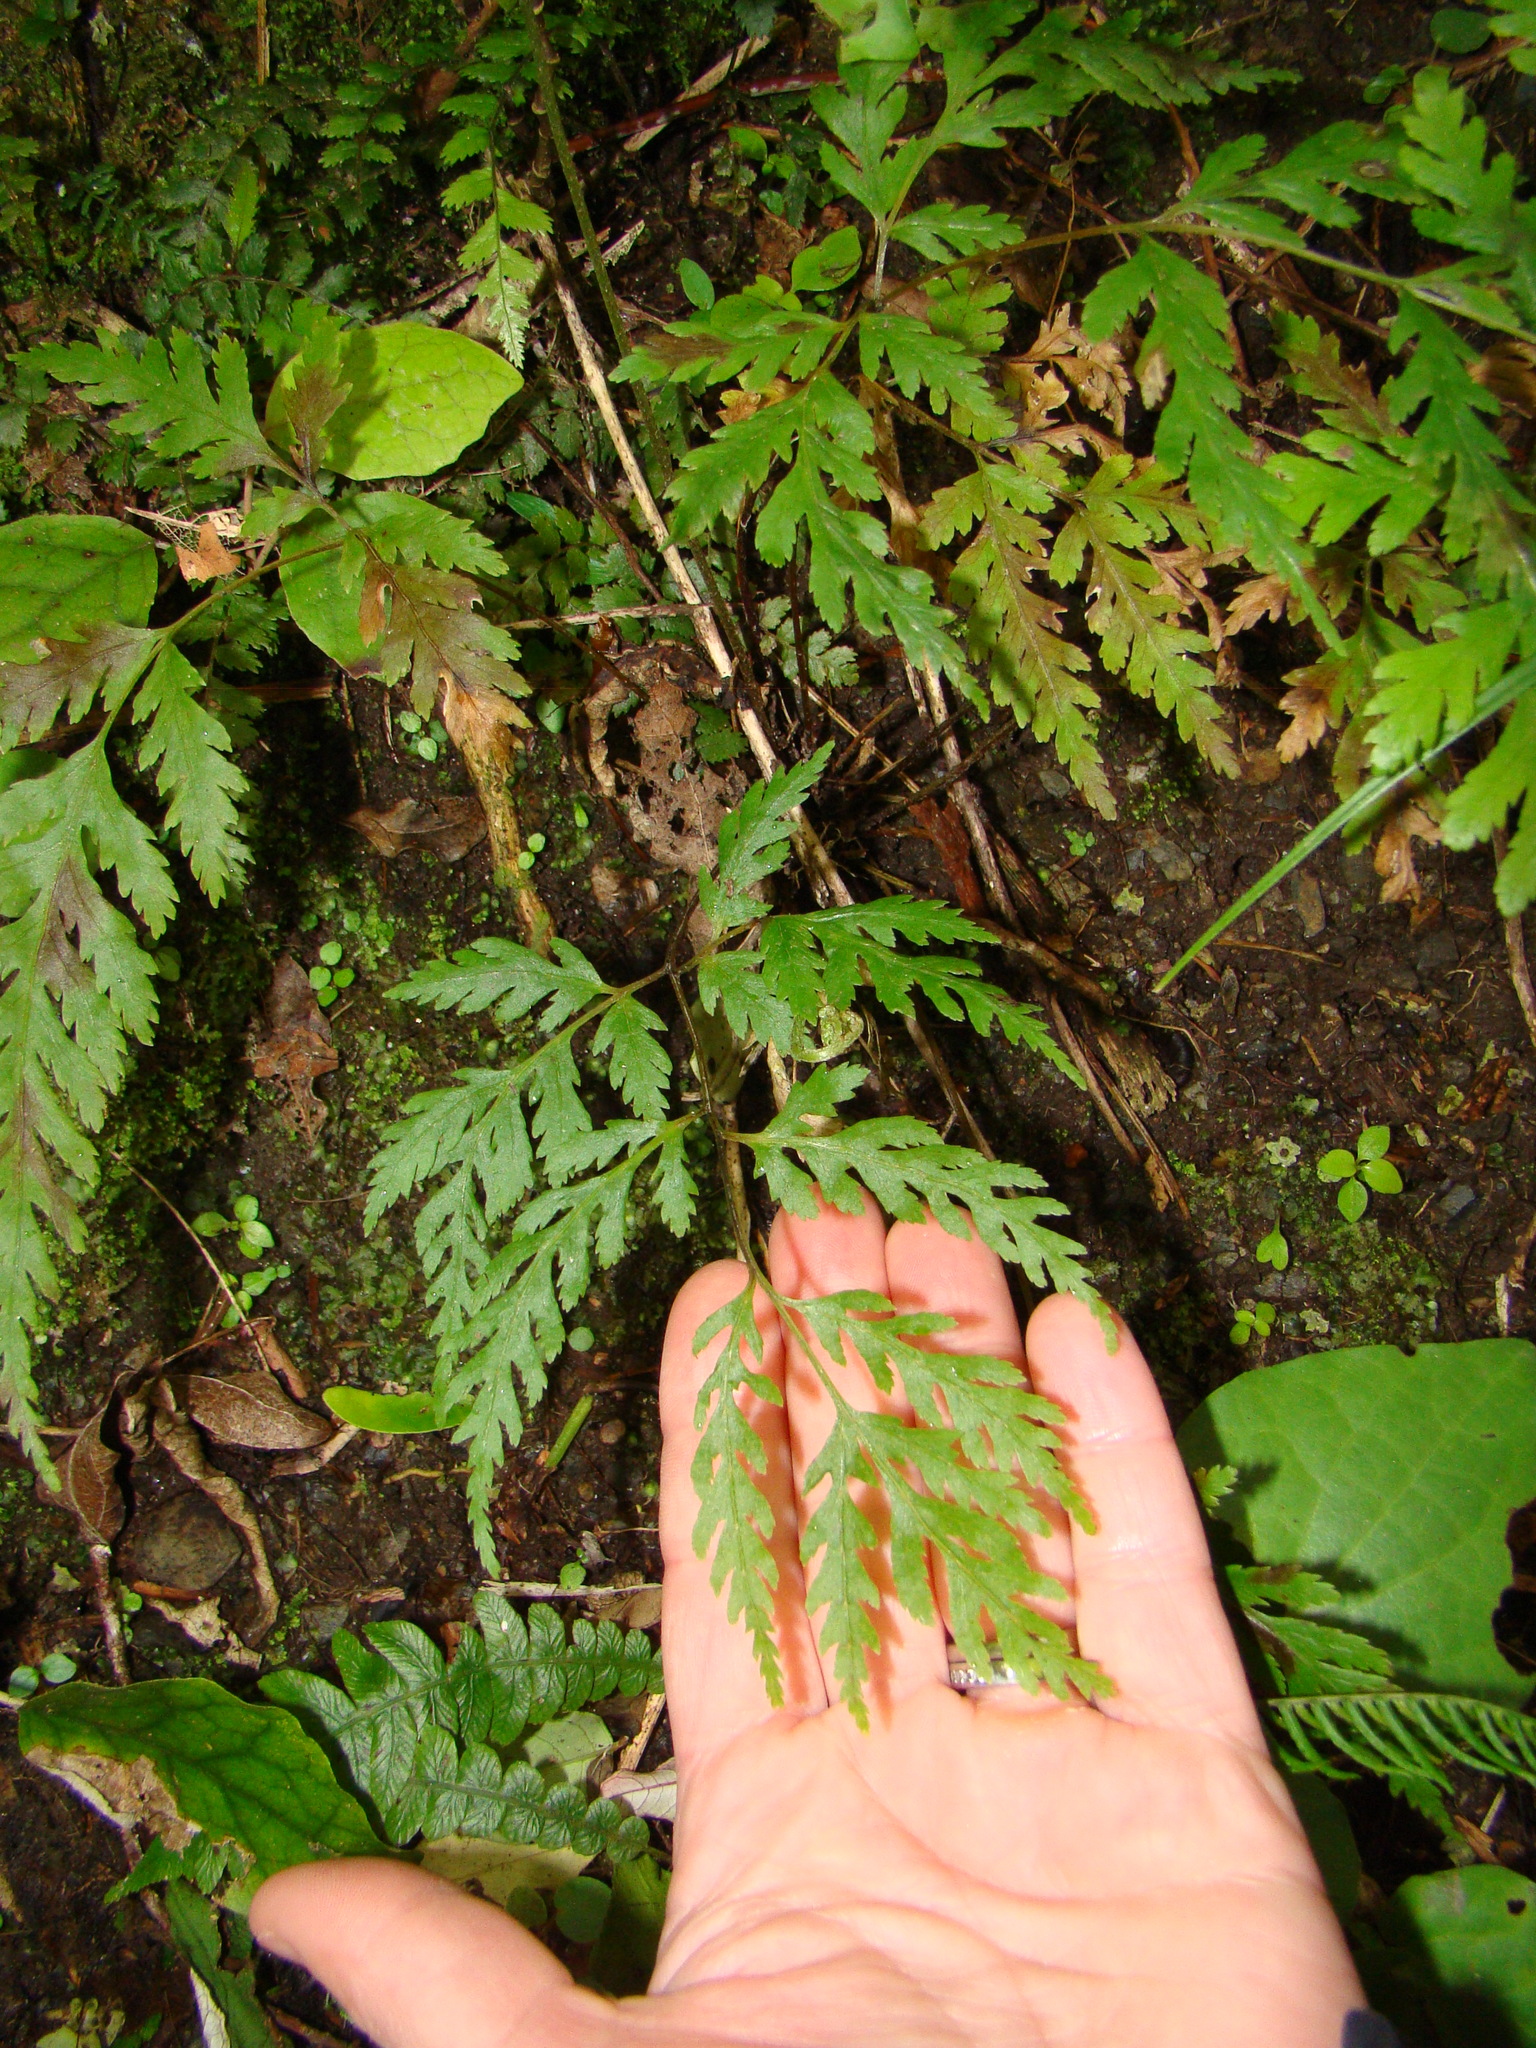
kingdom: Plantae
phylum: Tracheophyta
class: Polypodiopsida
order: Polypodiales
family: Aspleniaceae
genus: Asplenium
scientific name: Asplenium bulbiferum
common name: Mother fern
